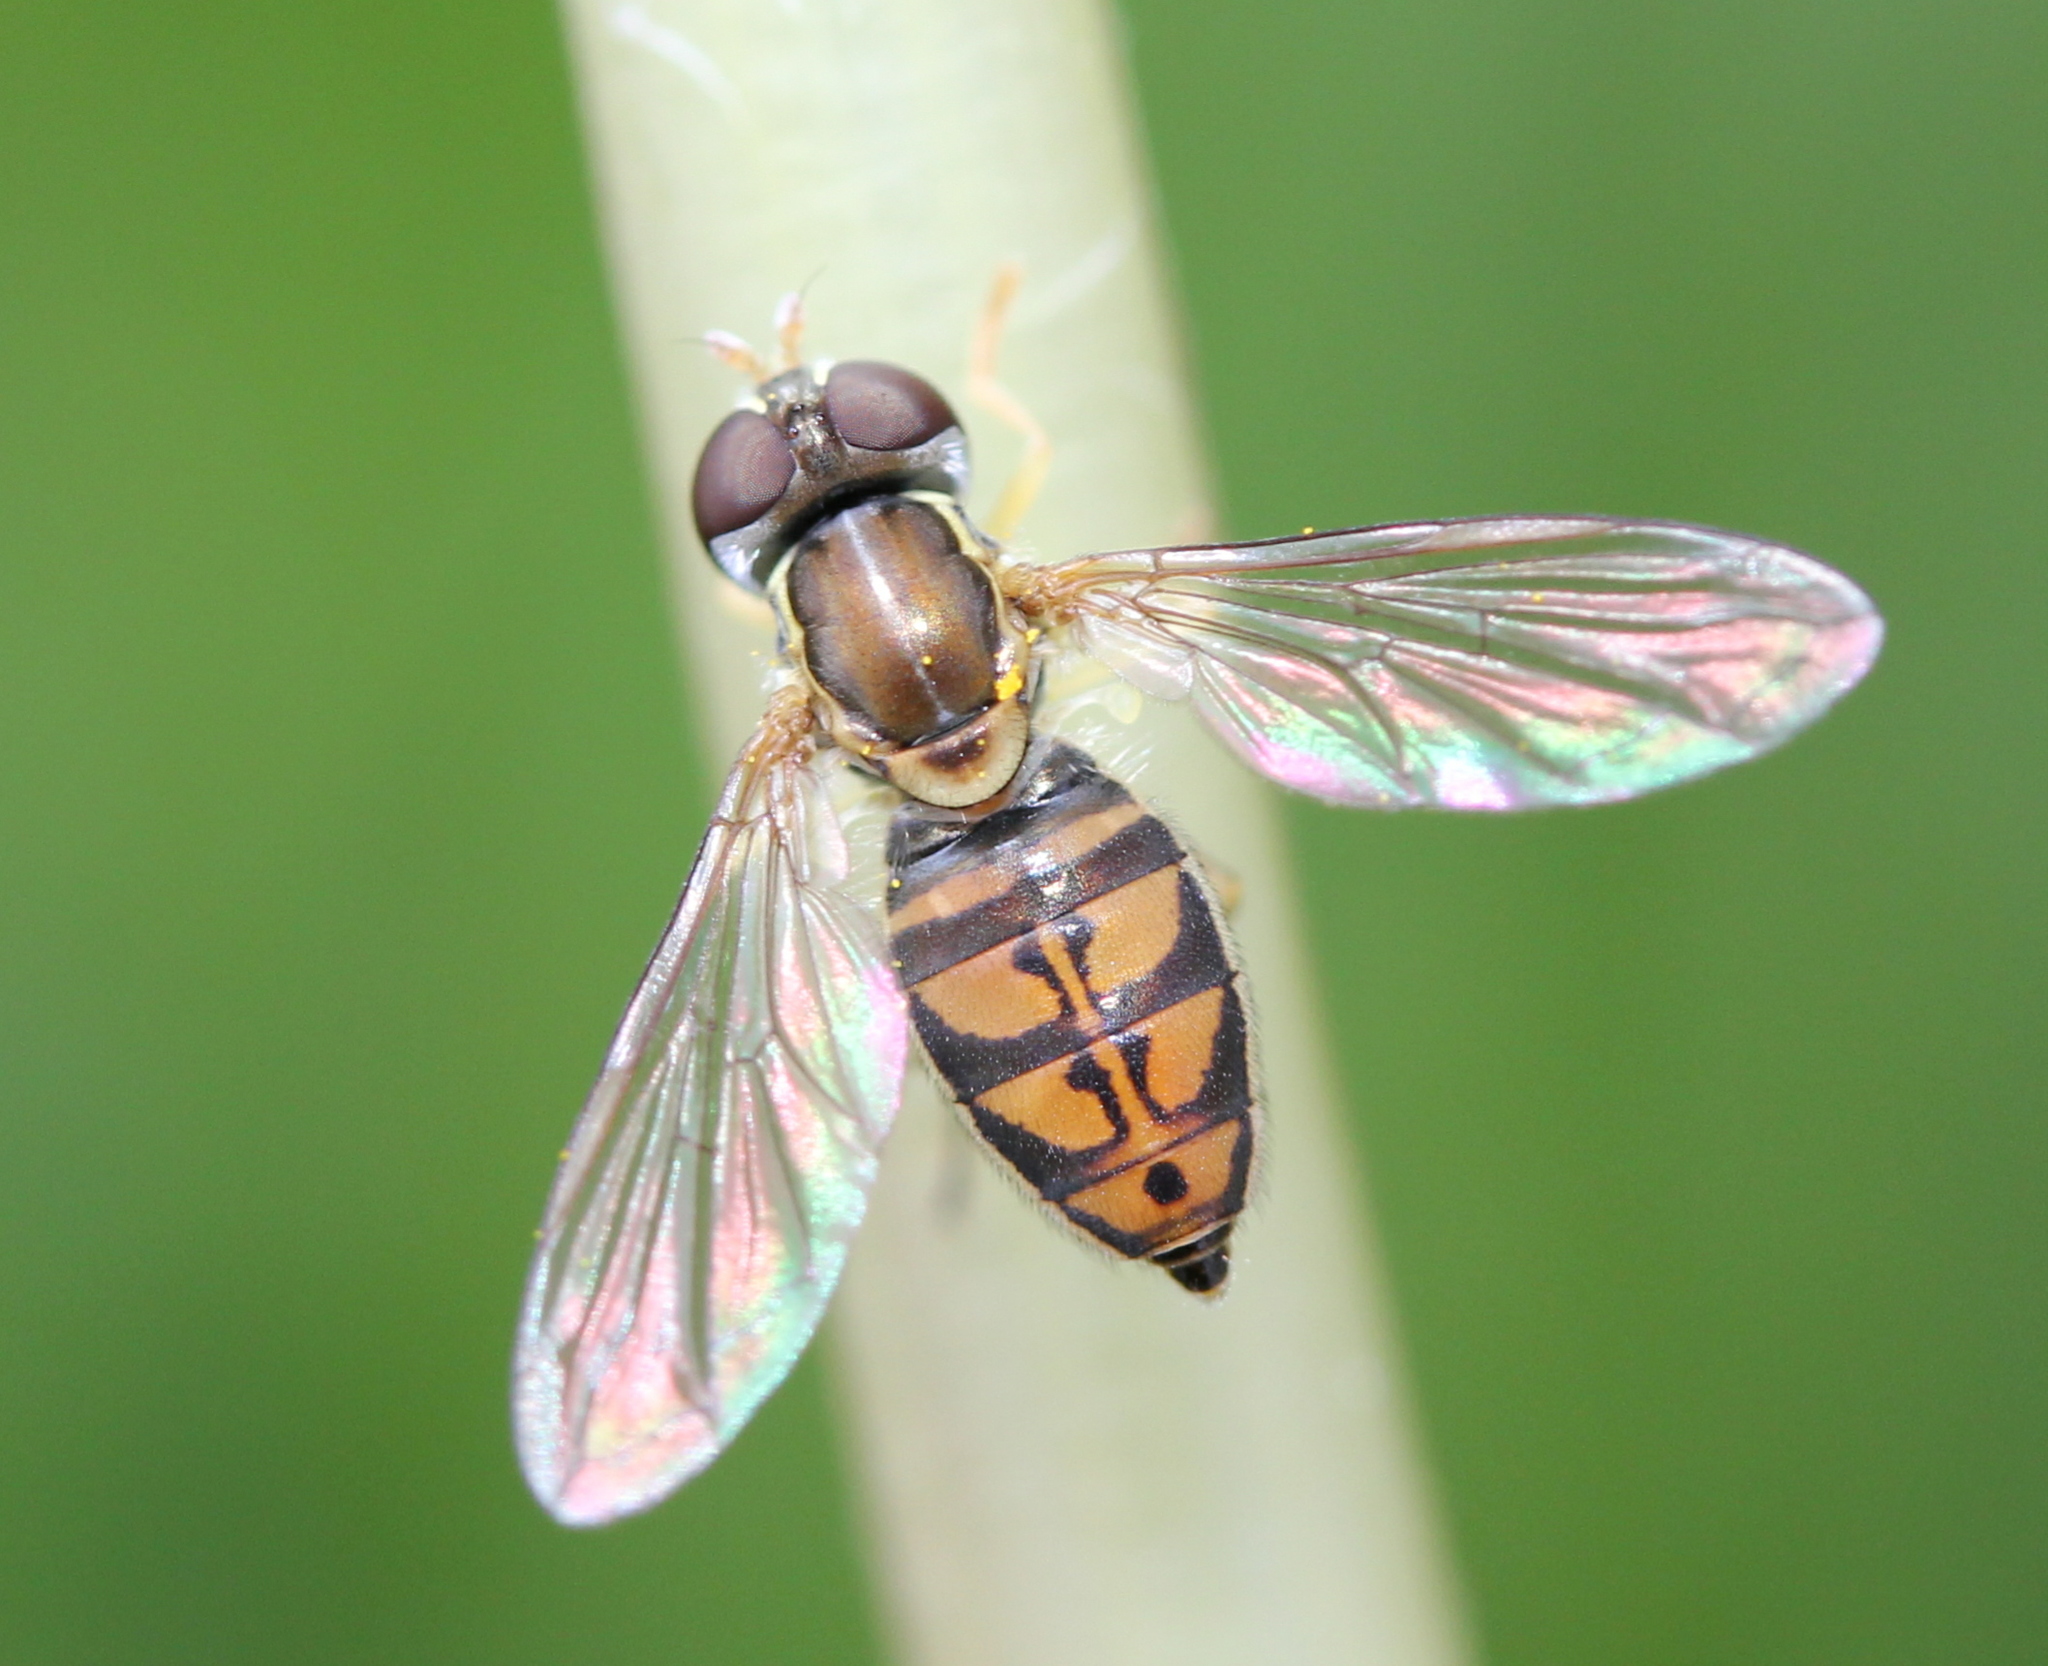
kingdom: Animalia
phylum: Arthropoda
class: Insecta
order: Diptera
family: Syrphidae
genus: Toxomerus
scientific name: Toxomerus marginatus
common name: Syrphid fly
